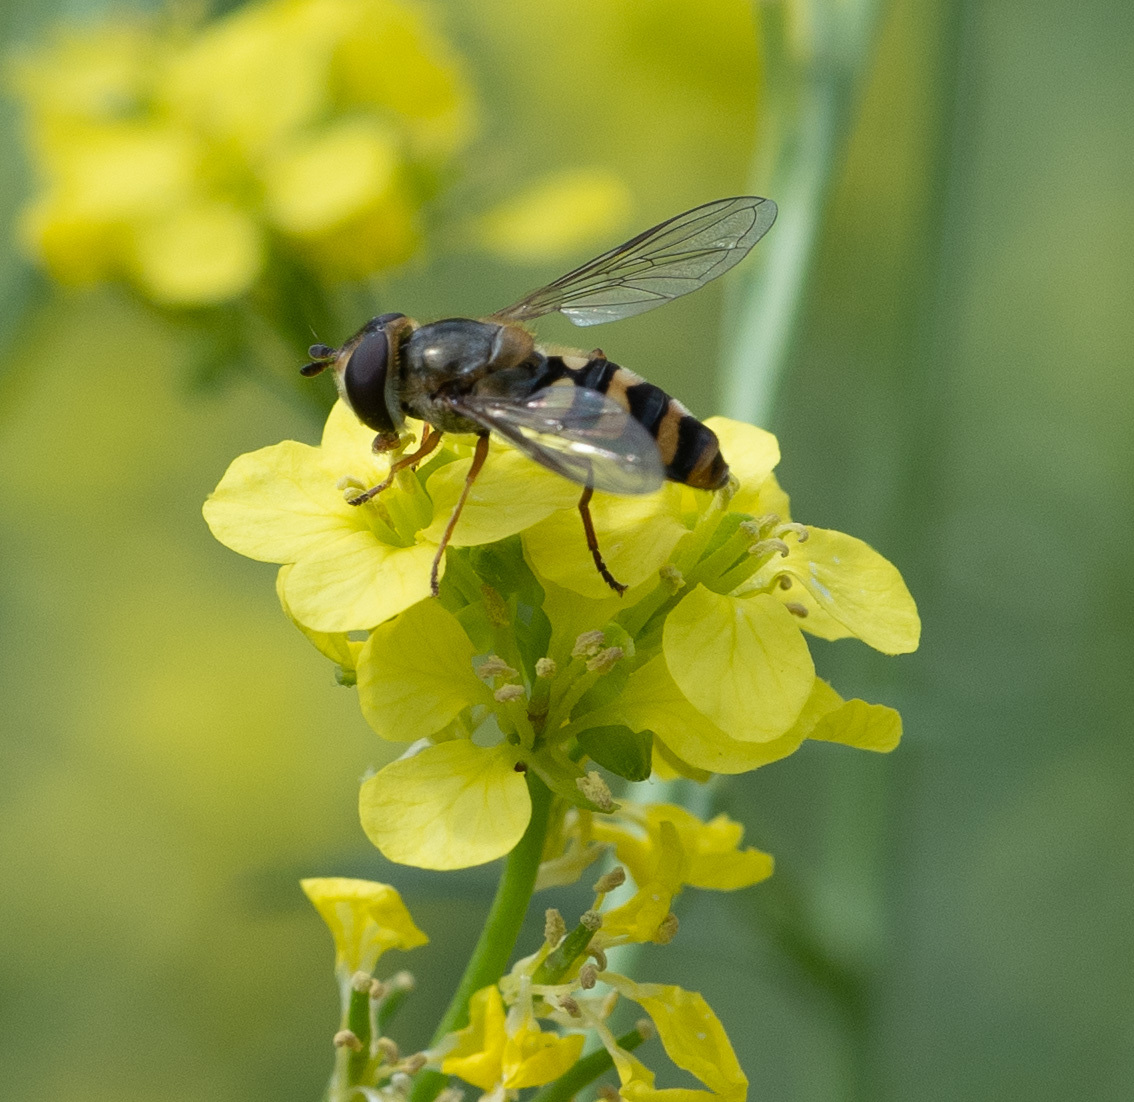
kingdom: Animalia
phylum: Arthropoda
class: Insecta
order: Diptera
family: Syrphidae
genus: Eupeodes
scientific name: Eupeodes fumipennis
